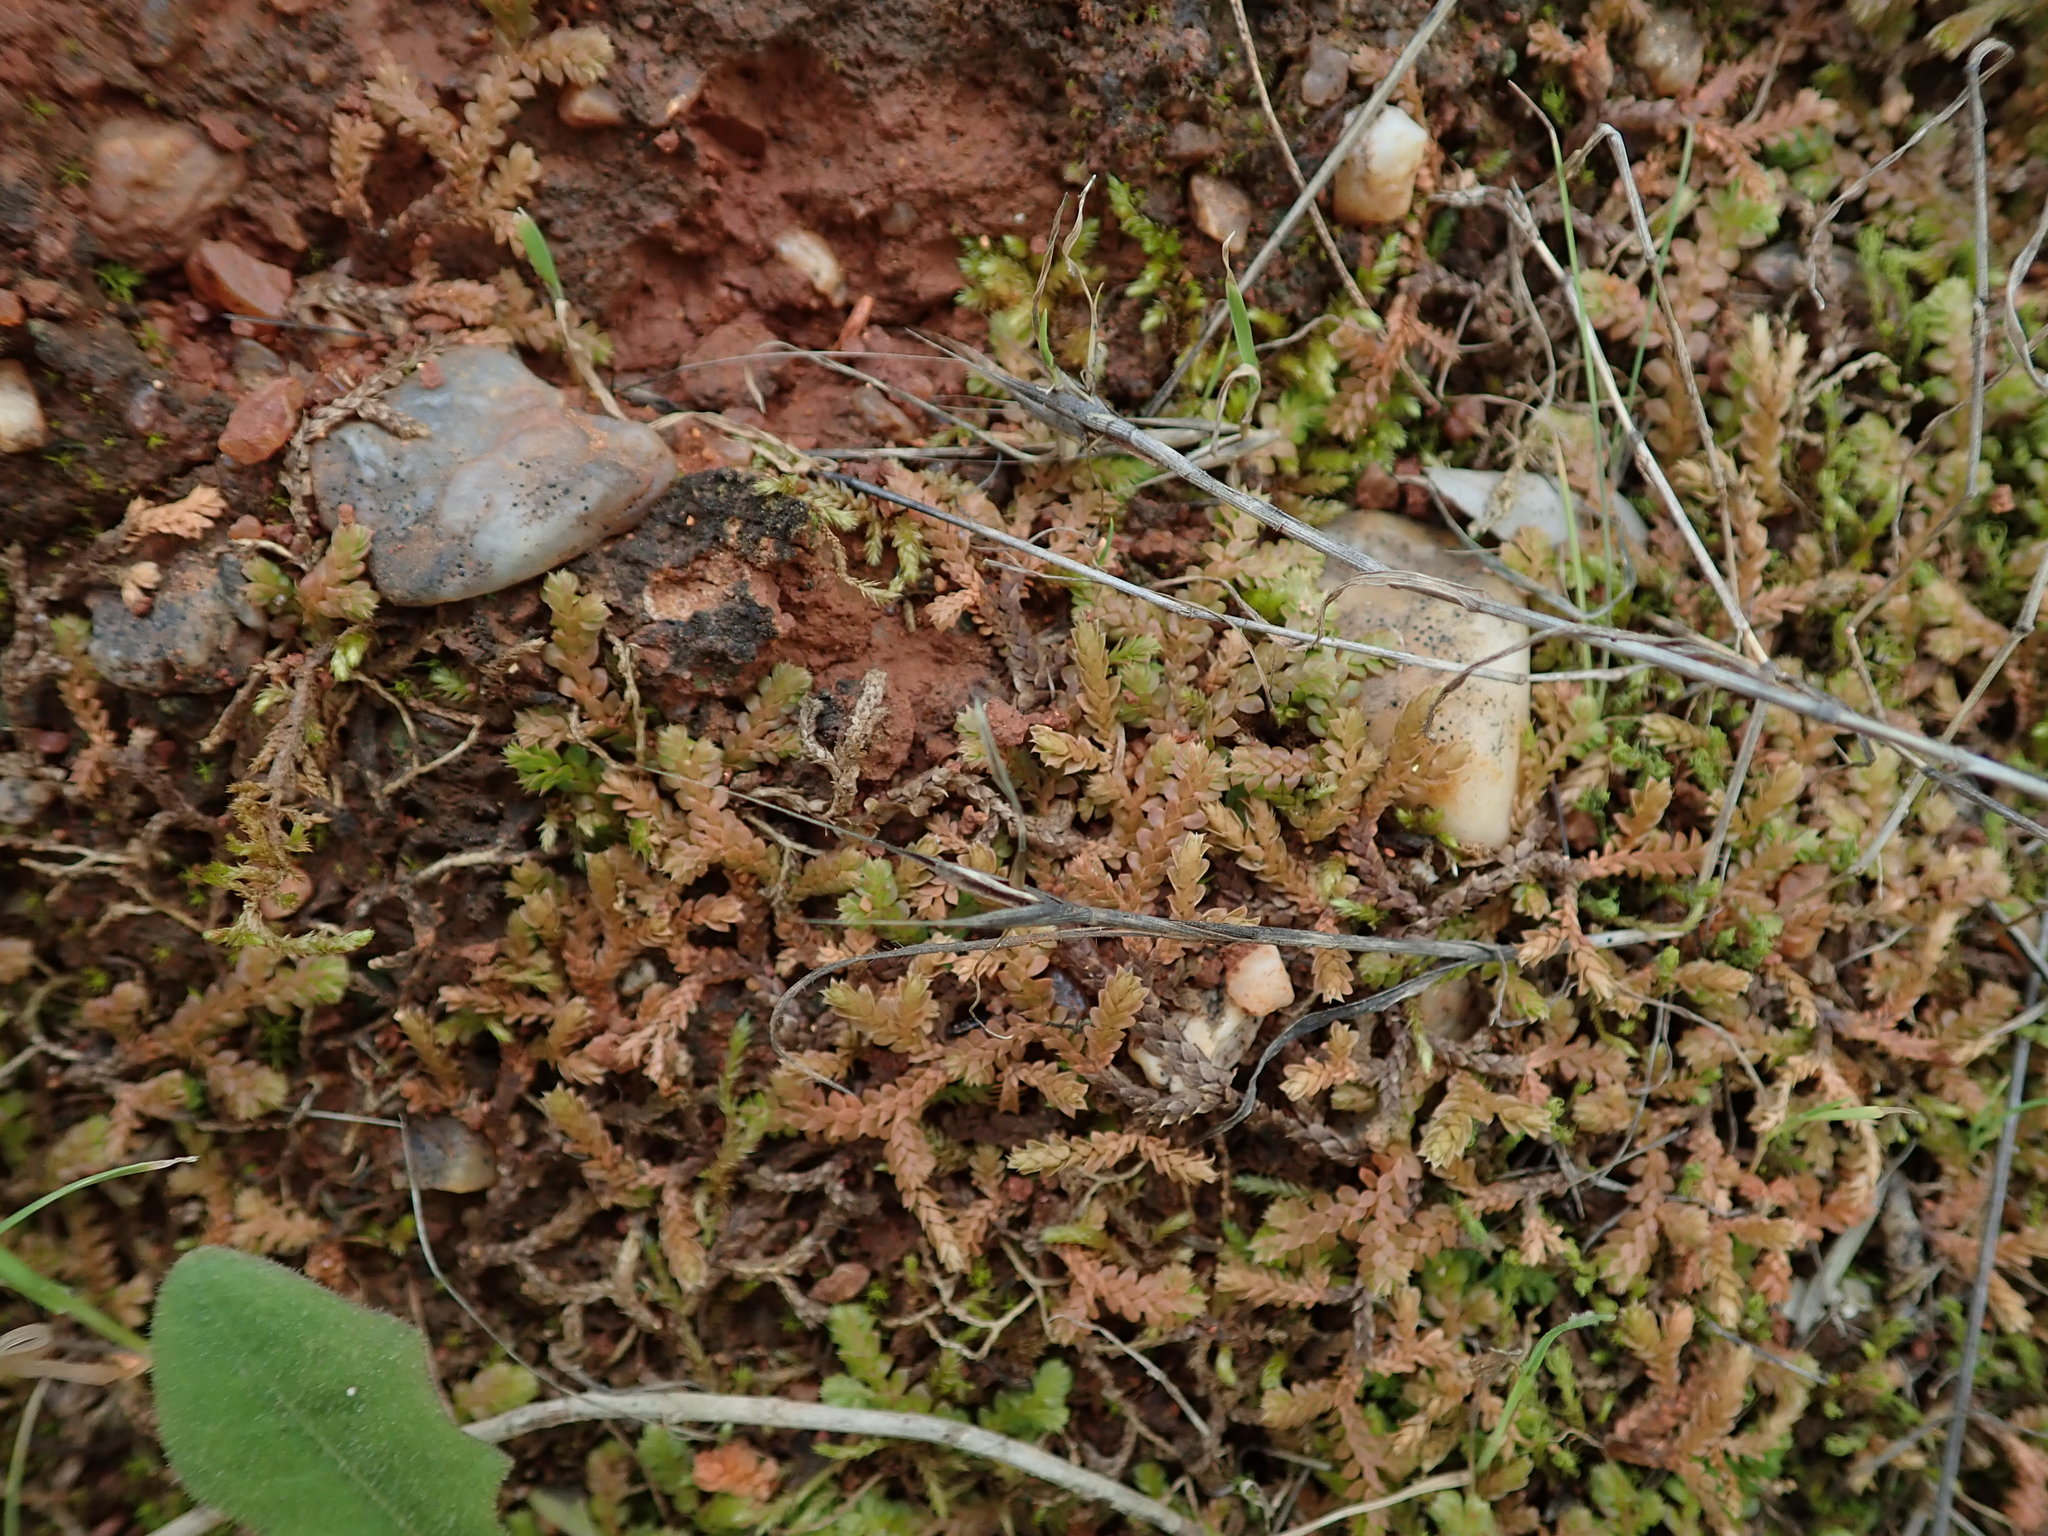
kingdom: Plantae
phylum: Tracheophyta
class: Lycopodiopsida
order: Selaginellales
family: Selaginellaceae
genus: Selaginella
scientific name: Selaginella denticulata
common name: Toothed-leaved clubmoss
